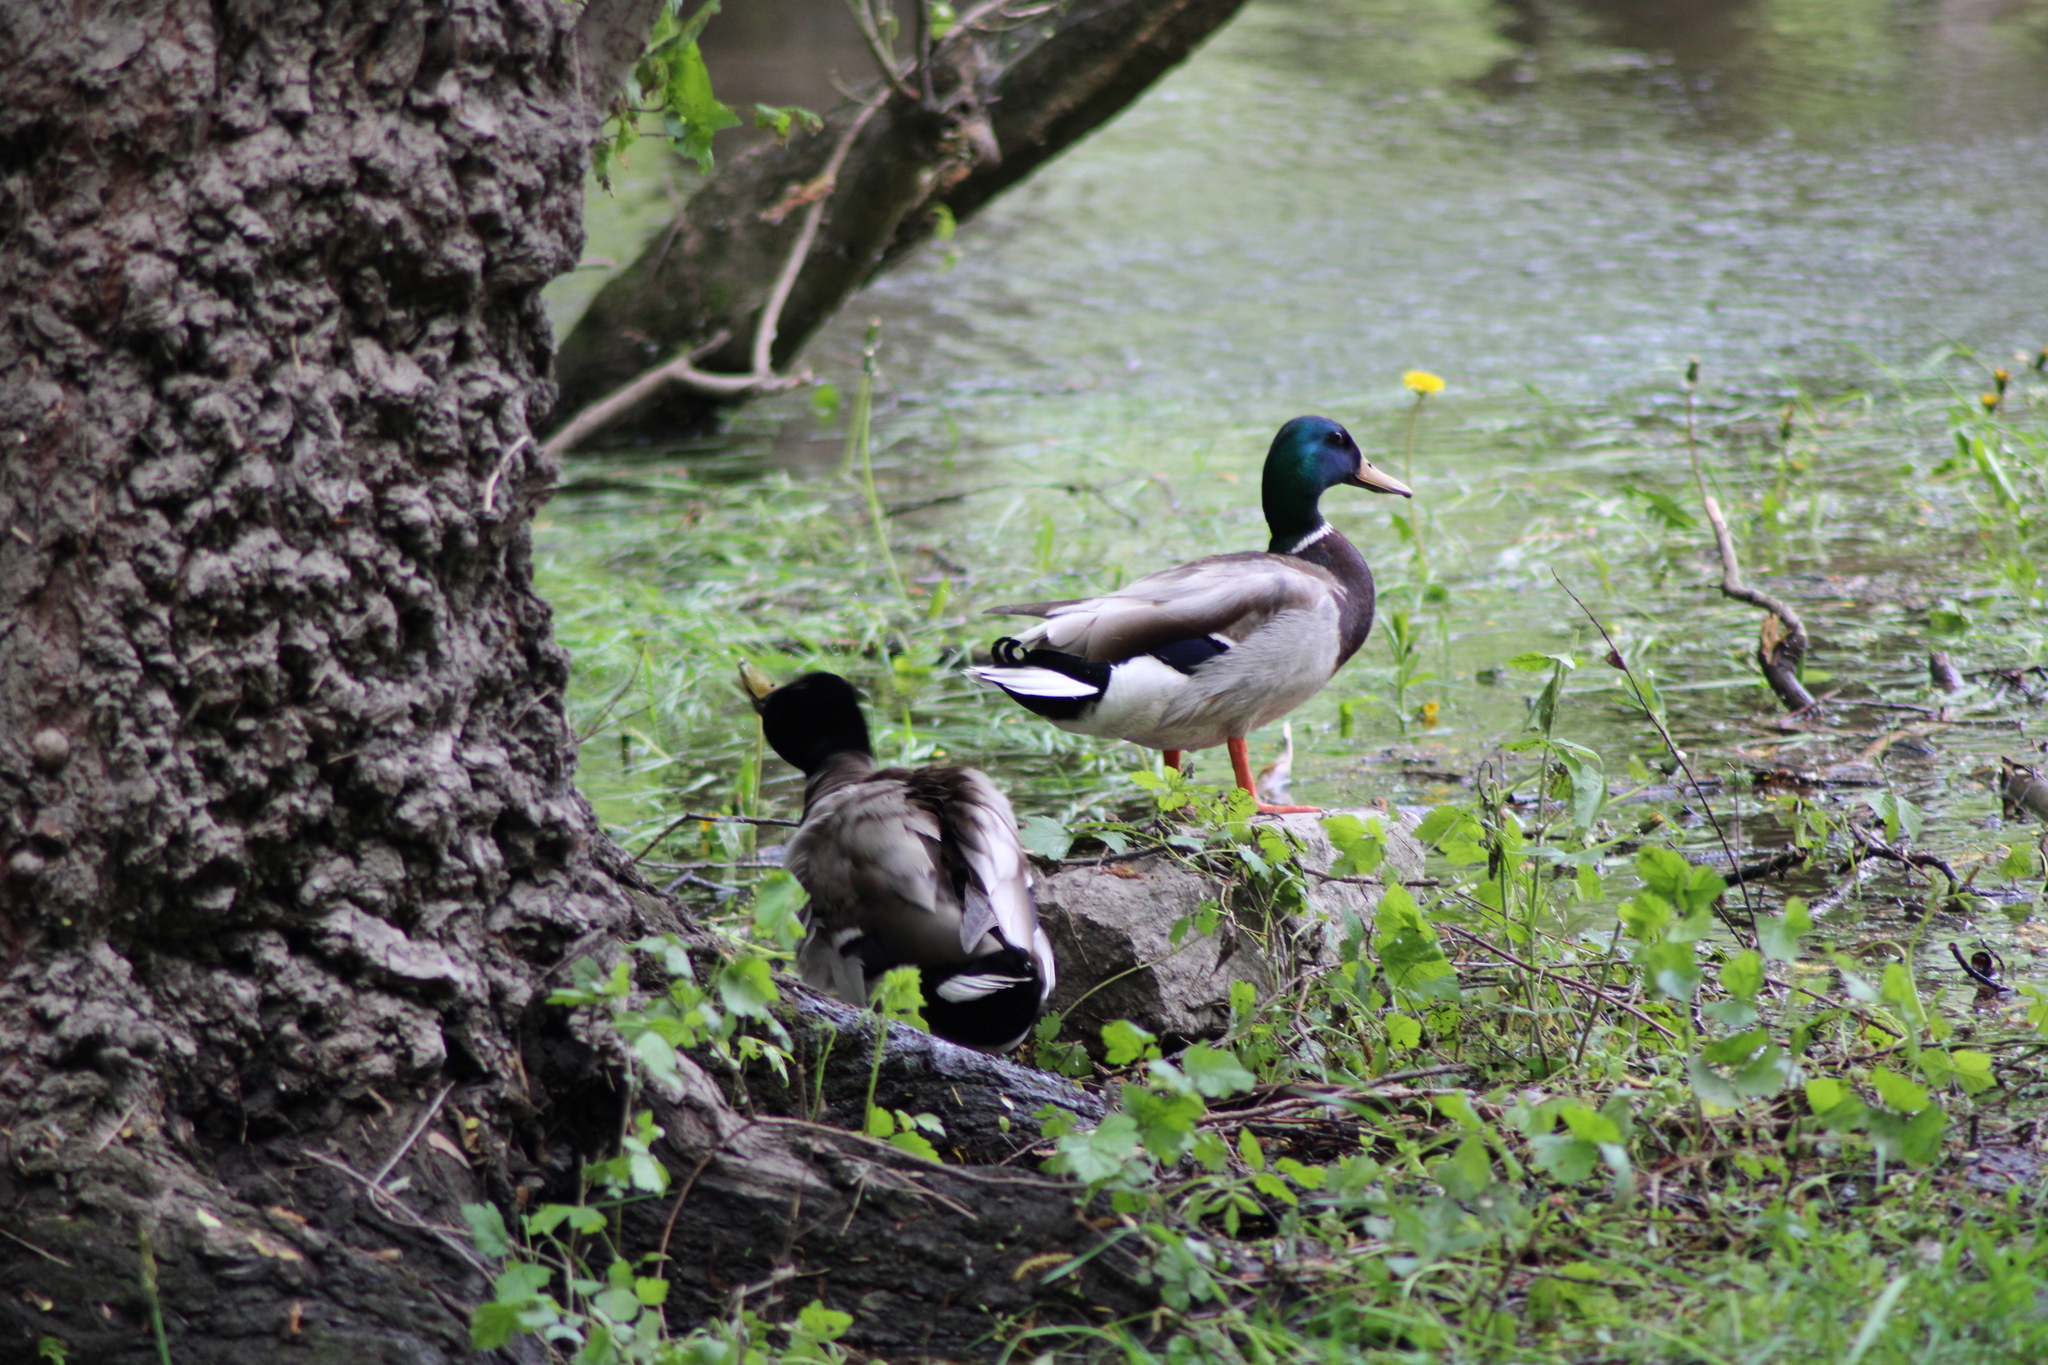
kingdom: Animalia
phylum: Chordata
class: Aves
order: Anseriformes
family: Anatidae
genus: Anas
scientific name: Anas platyrhynchos
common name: Mallard
